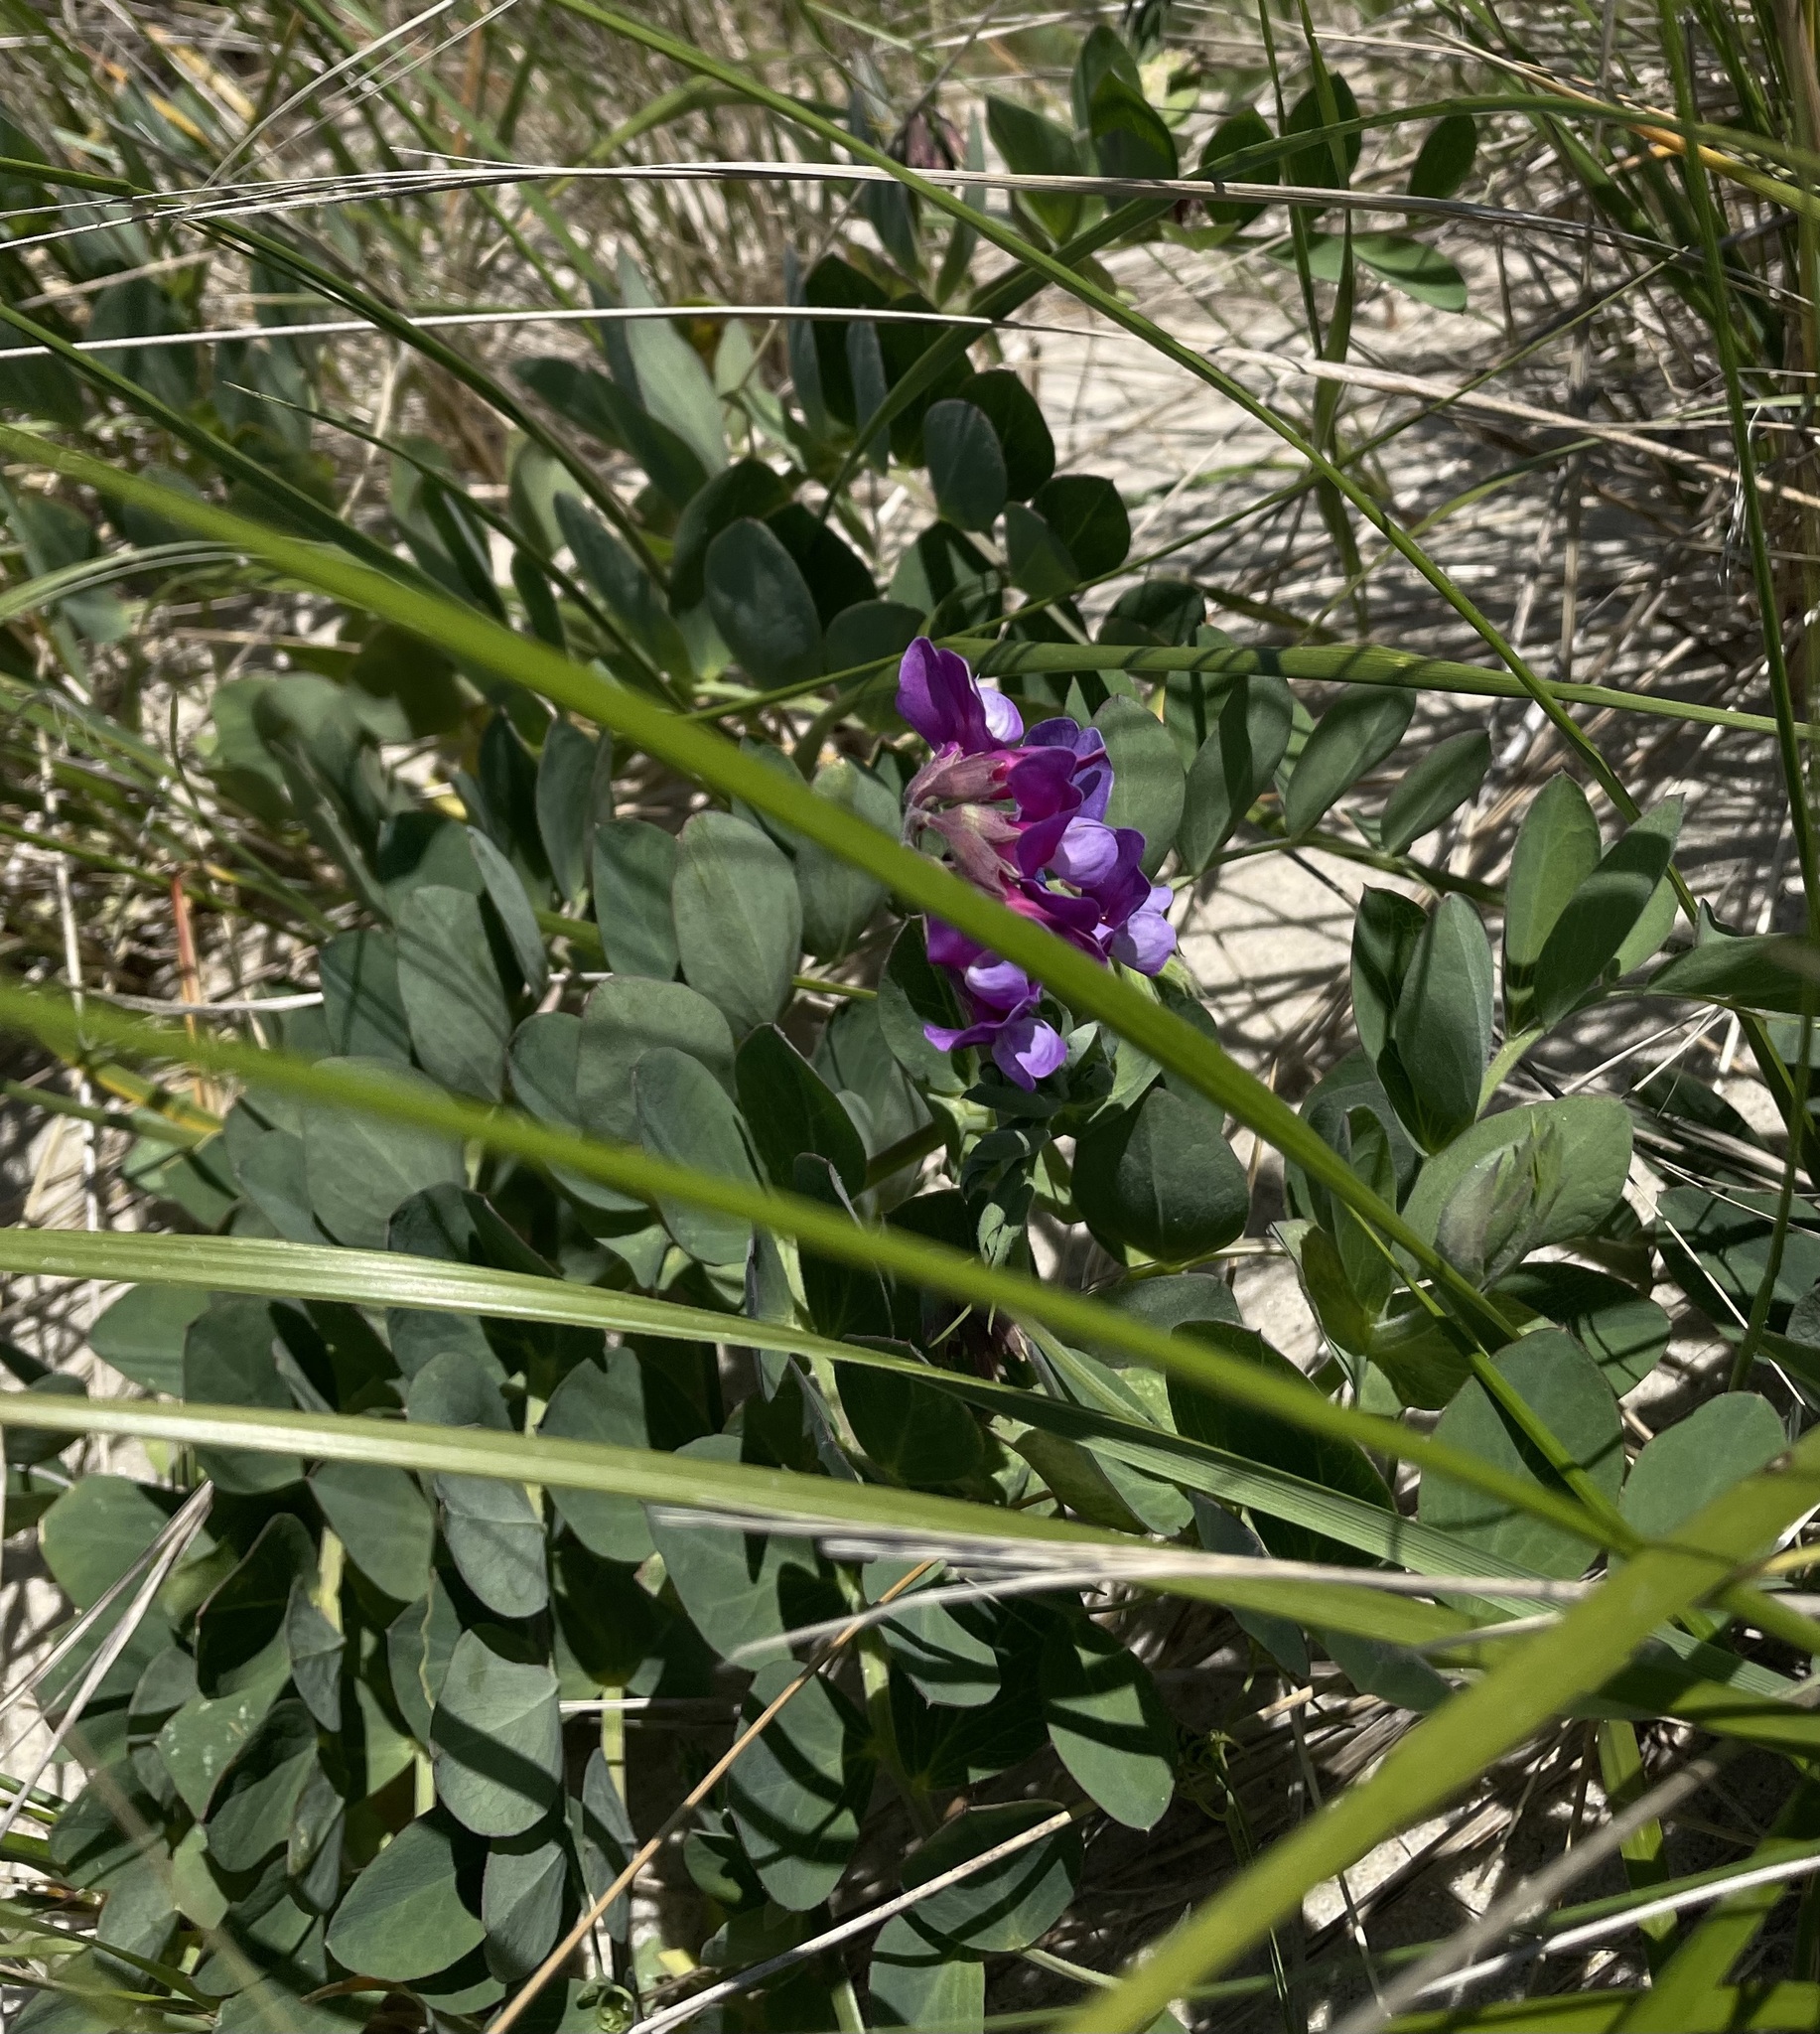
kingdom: Plantae
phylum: Tracheophyta
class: Magnoliopsida
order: Fabales
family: Fabaceae
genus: Lathyrus
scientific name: Lathyrus japonicus
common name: Sea pea
